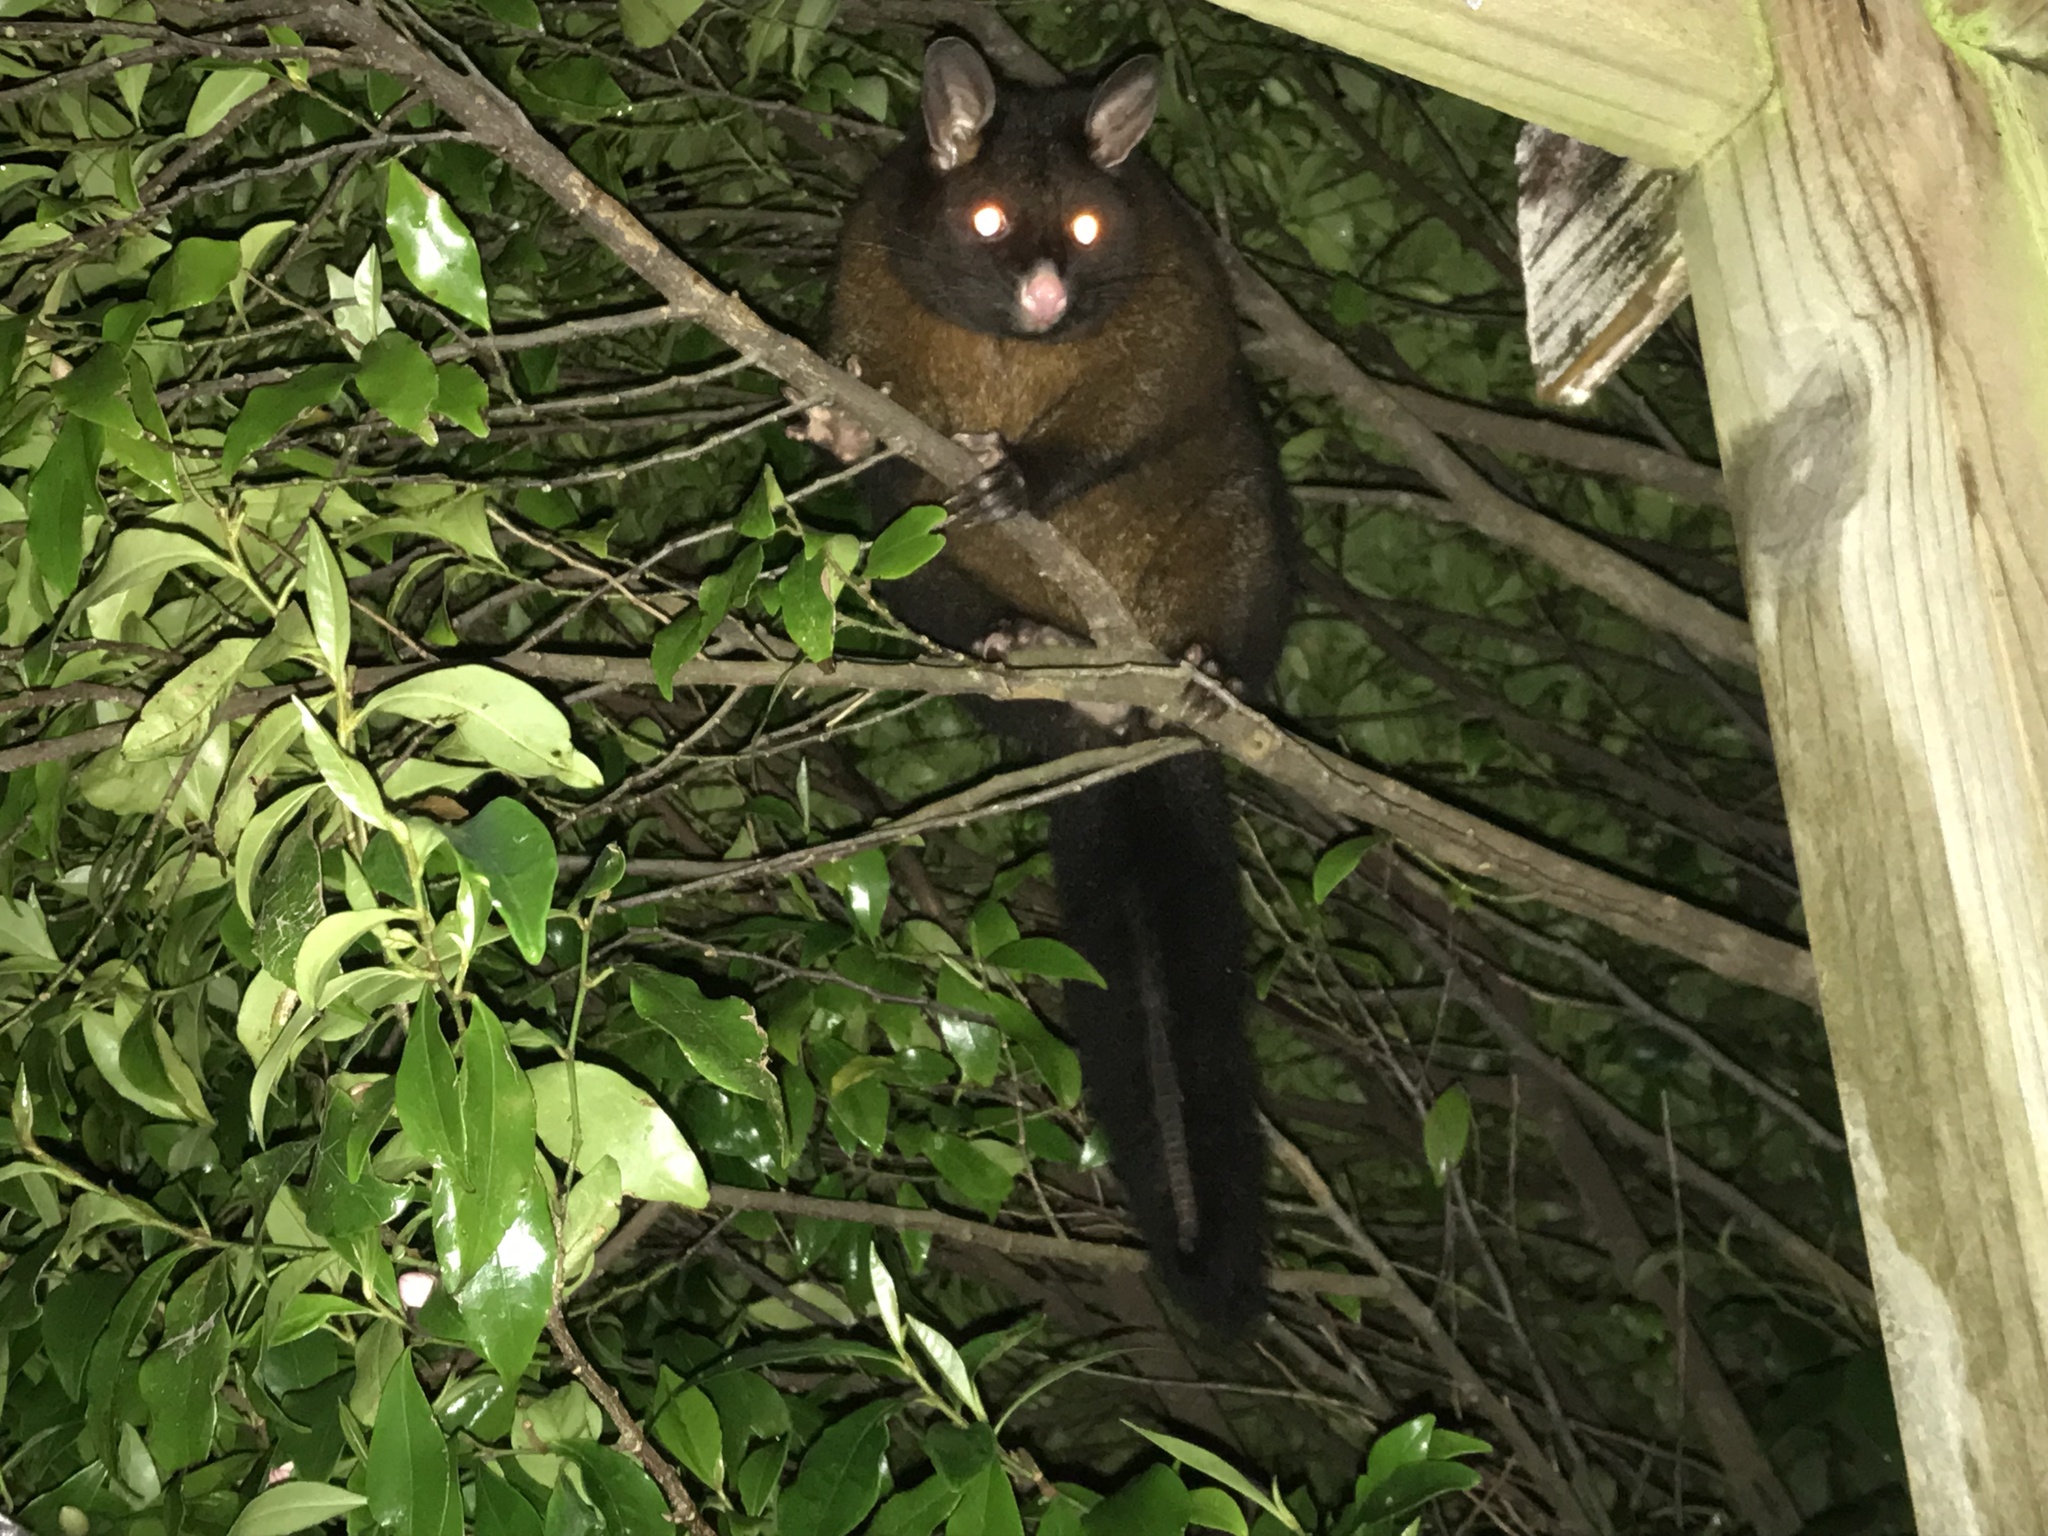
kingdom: Animalia
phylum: Chordata
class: Mammalia
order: Diprotodontia
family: Phalangeridae
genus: Trichosurus
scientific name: Trichosurus vulpecula
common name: Common brushtail
